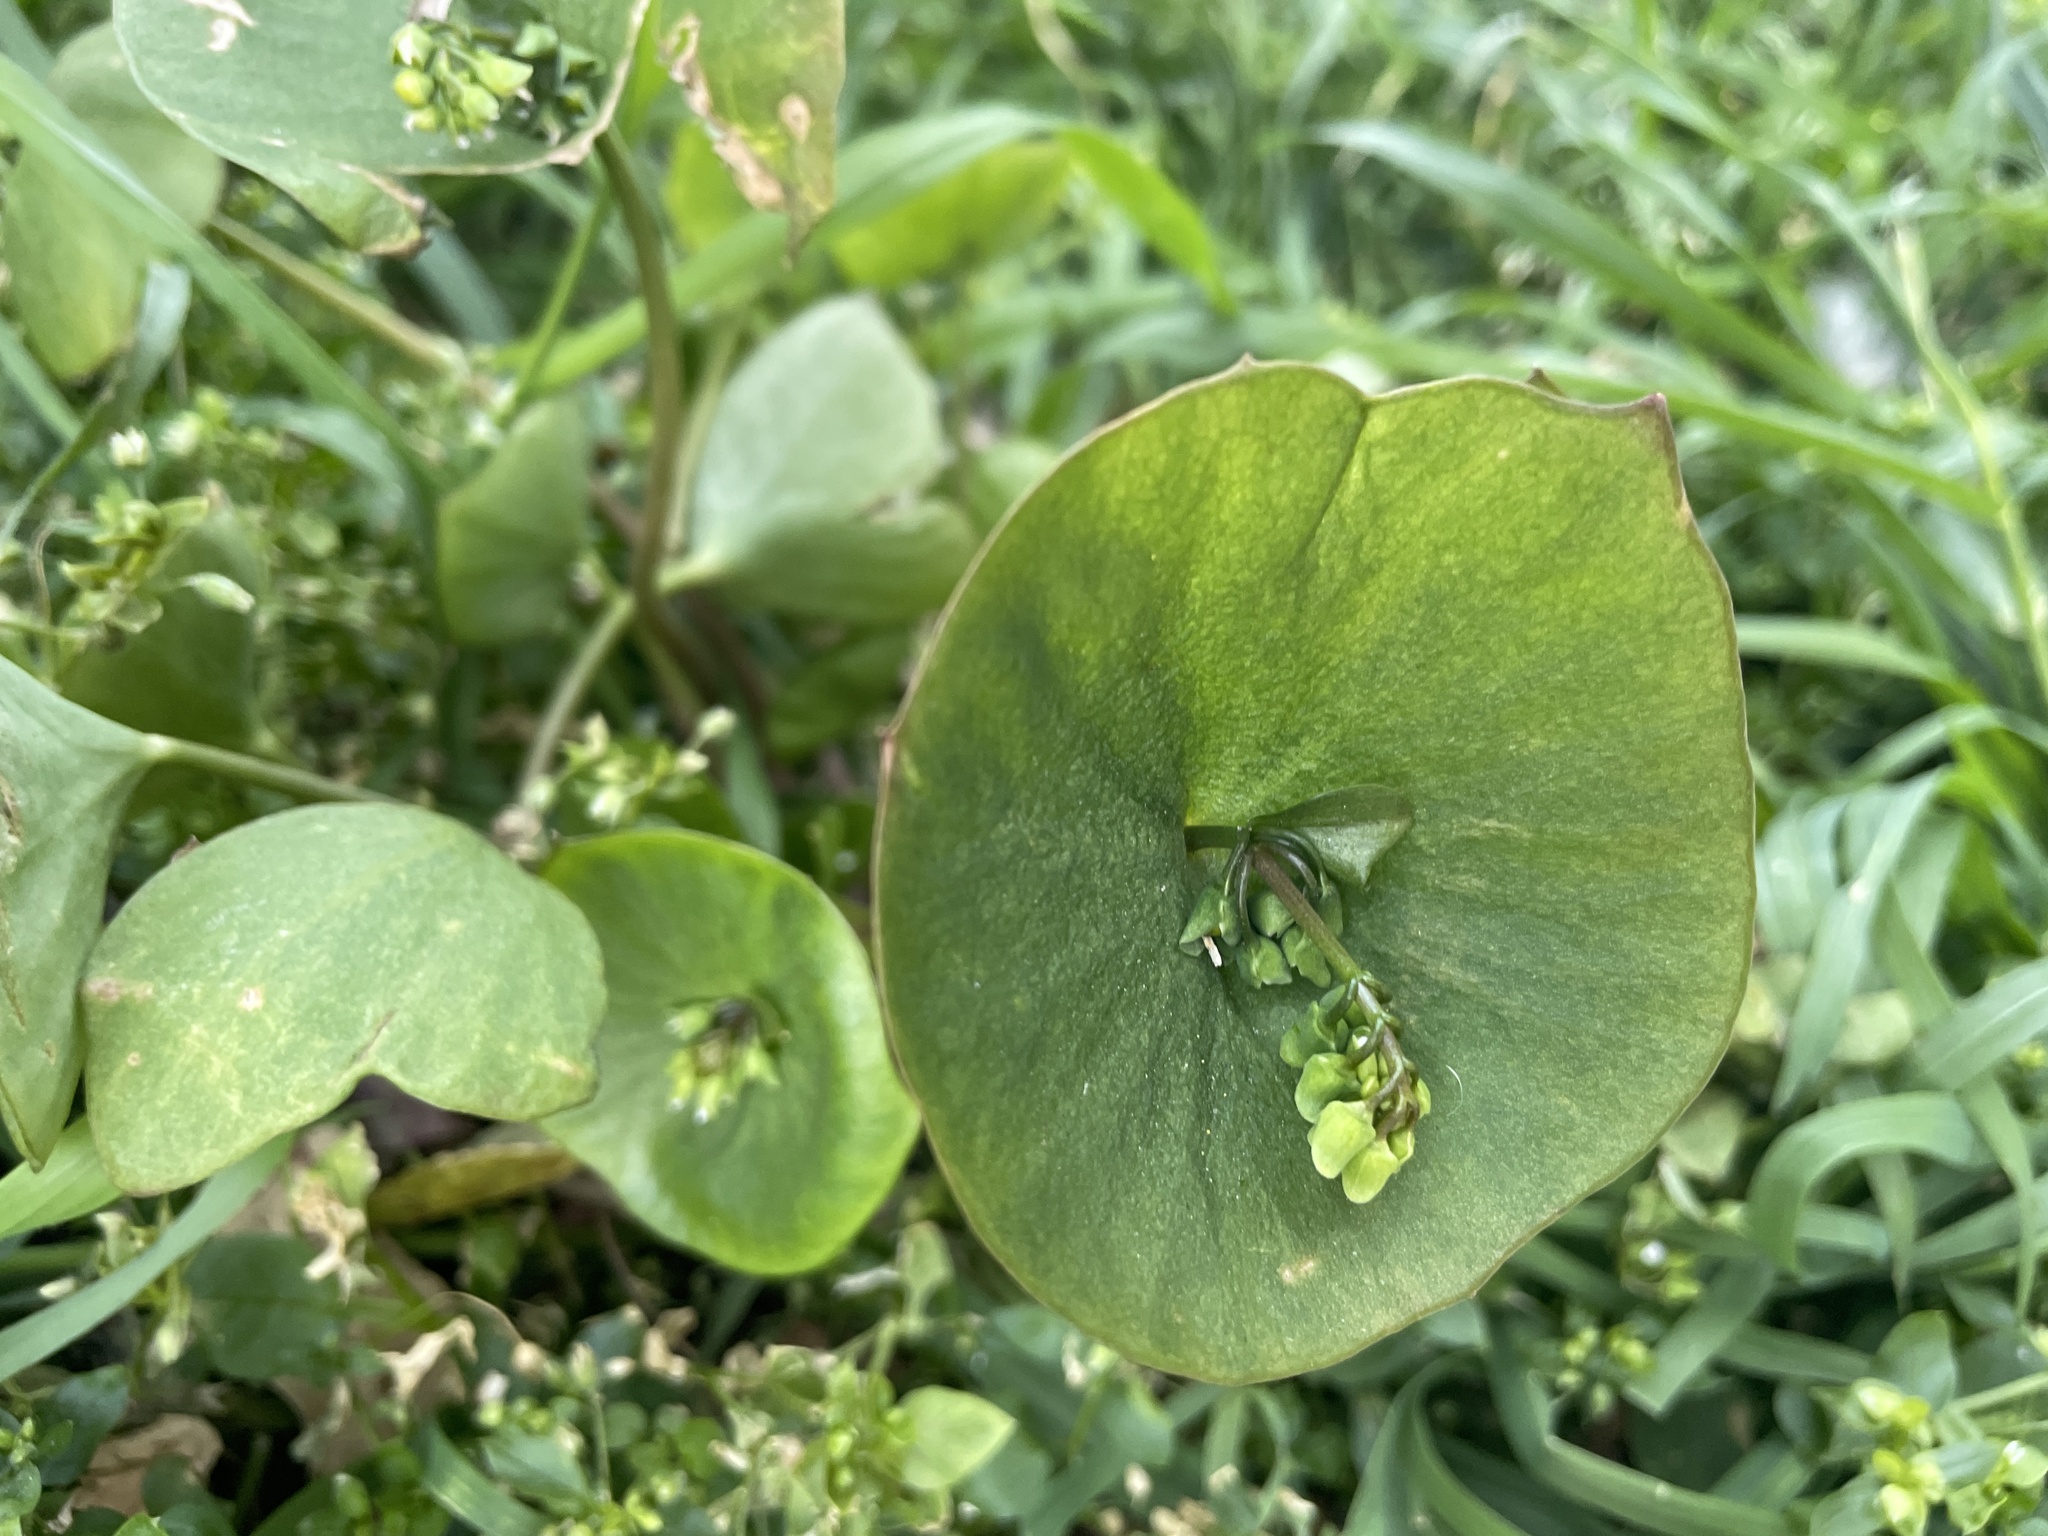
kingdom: Plantae
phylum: Tracheophyta
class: Magnoliopsida
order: Caryophyllales
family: Montiaceae
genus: Claytonia
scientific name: Claytonia perfoliata
